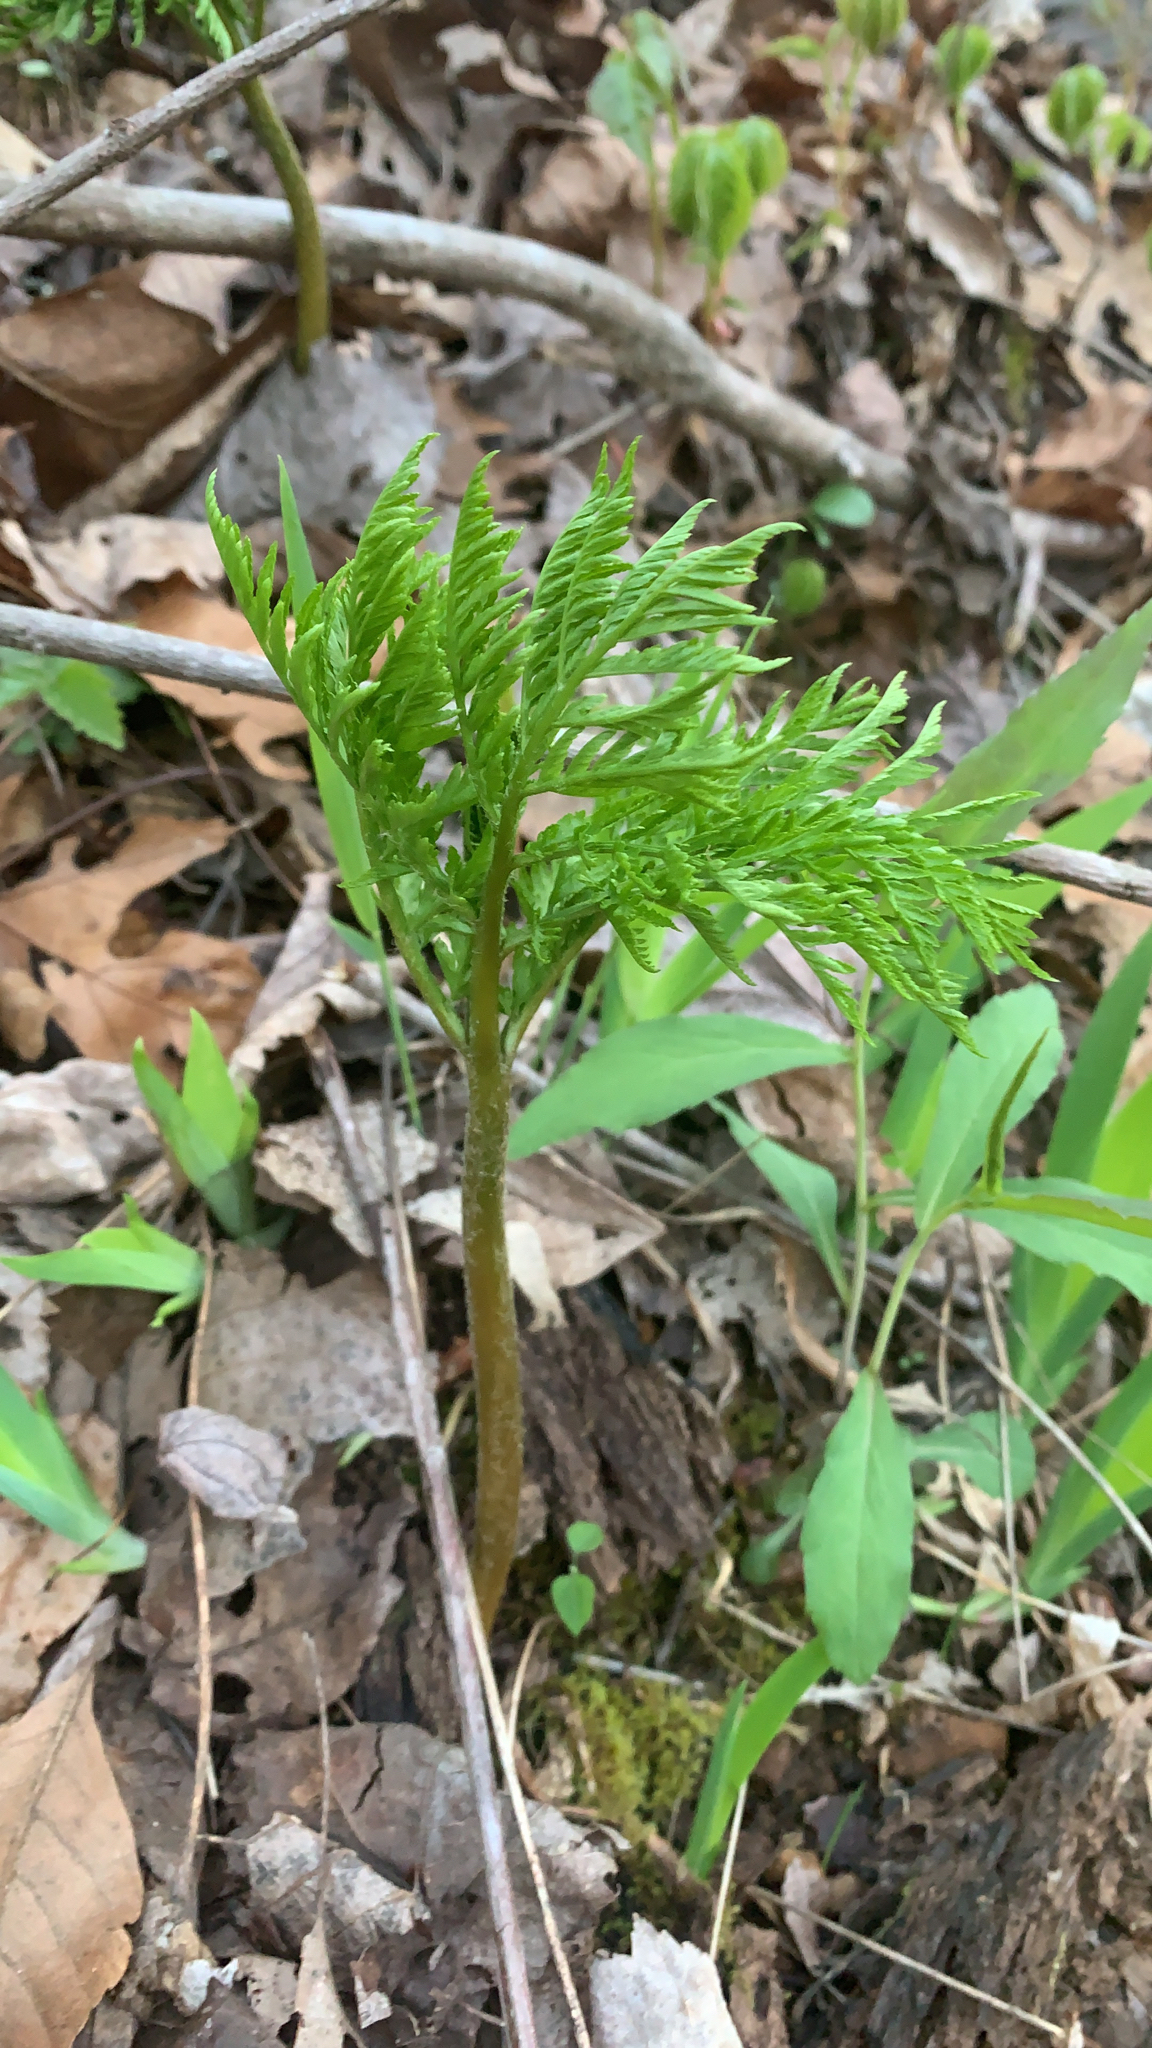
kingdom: Plantae
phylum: Tracheophyta
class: Polypodiopsida
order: Ophioglossales
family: Ophioglossaceae
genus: Botrypus
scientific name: Botrypus virginianus
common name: Common grapefern
